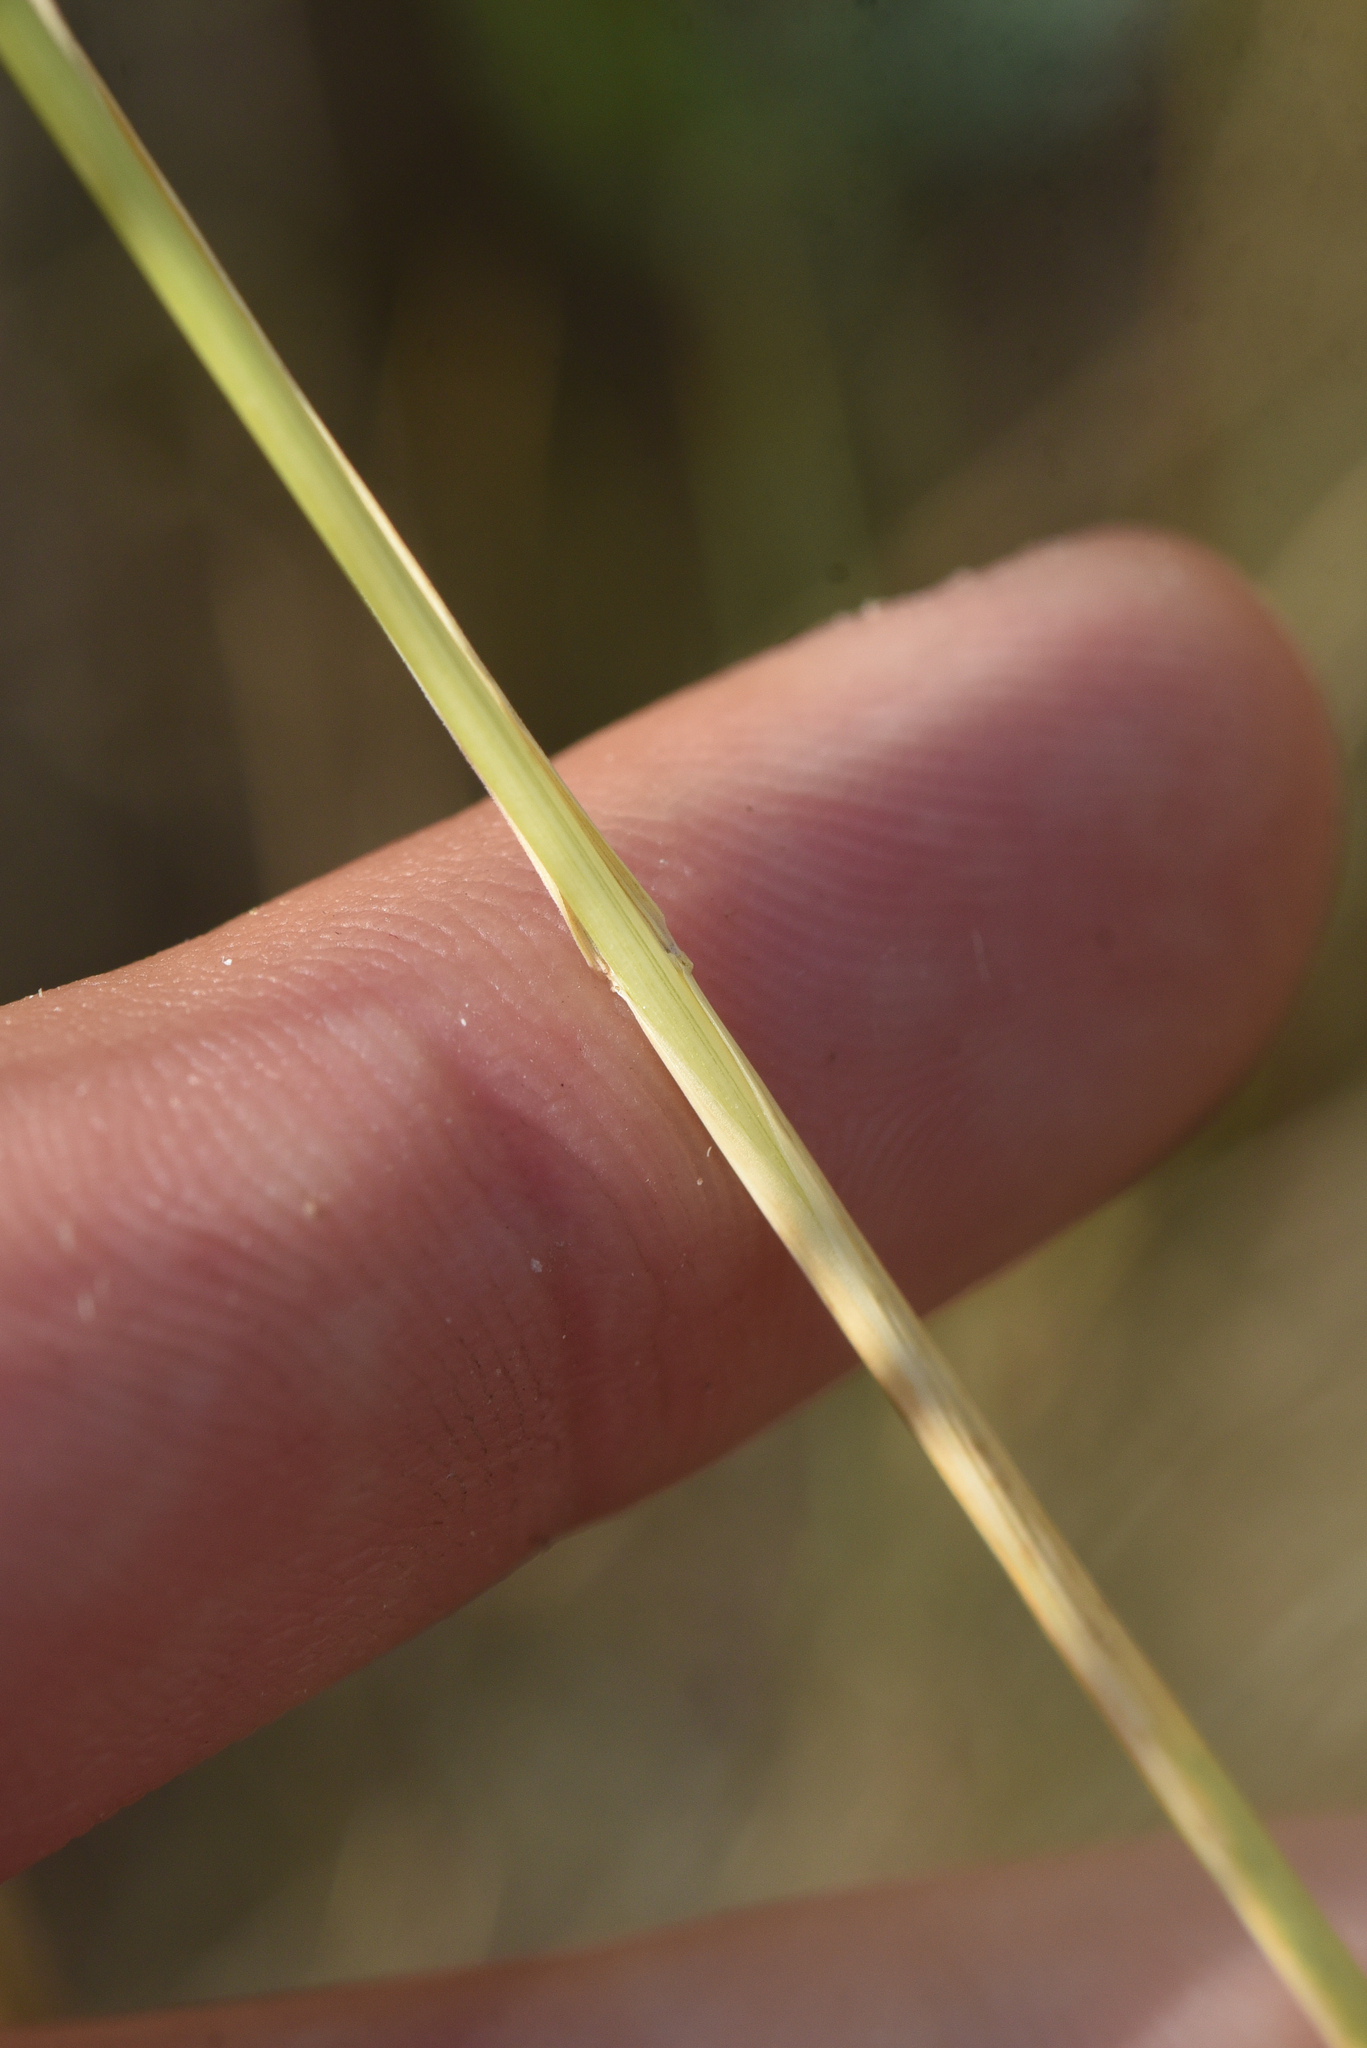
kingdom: Plantae
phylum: Tracheophyta
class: Liliopsida
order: Poales
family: Poaceae
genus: Hordeum
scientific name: Hordeum jubatum
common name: Foxtail barley
